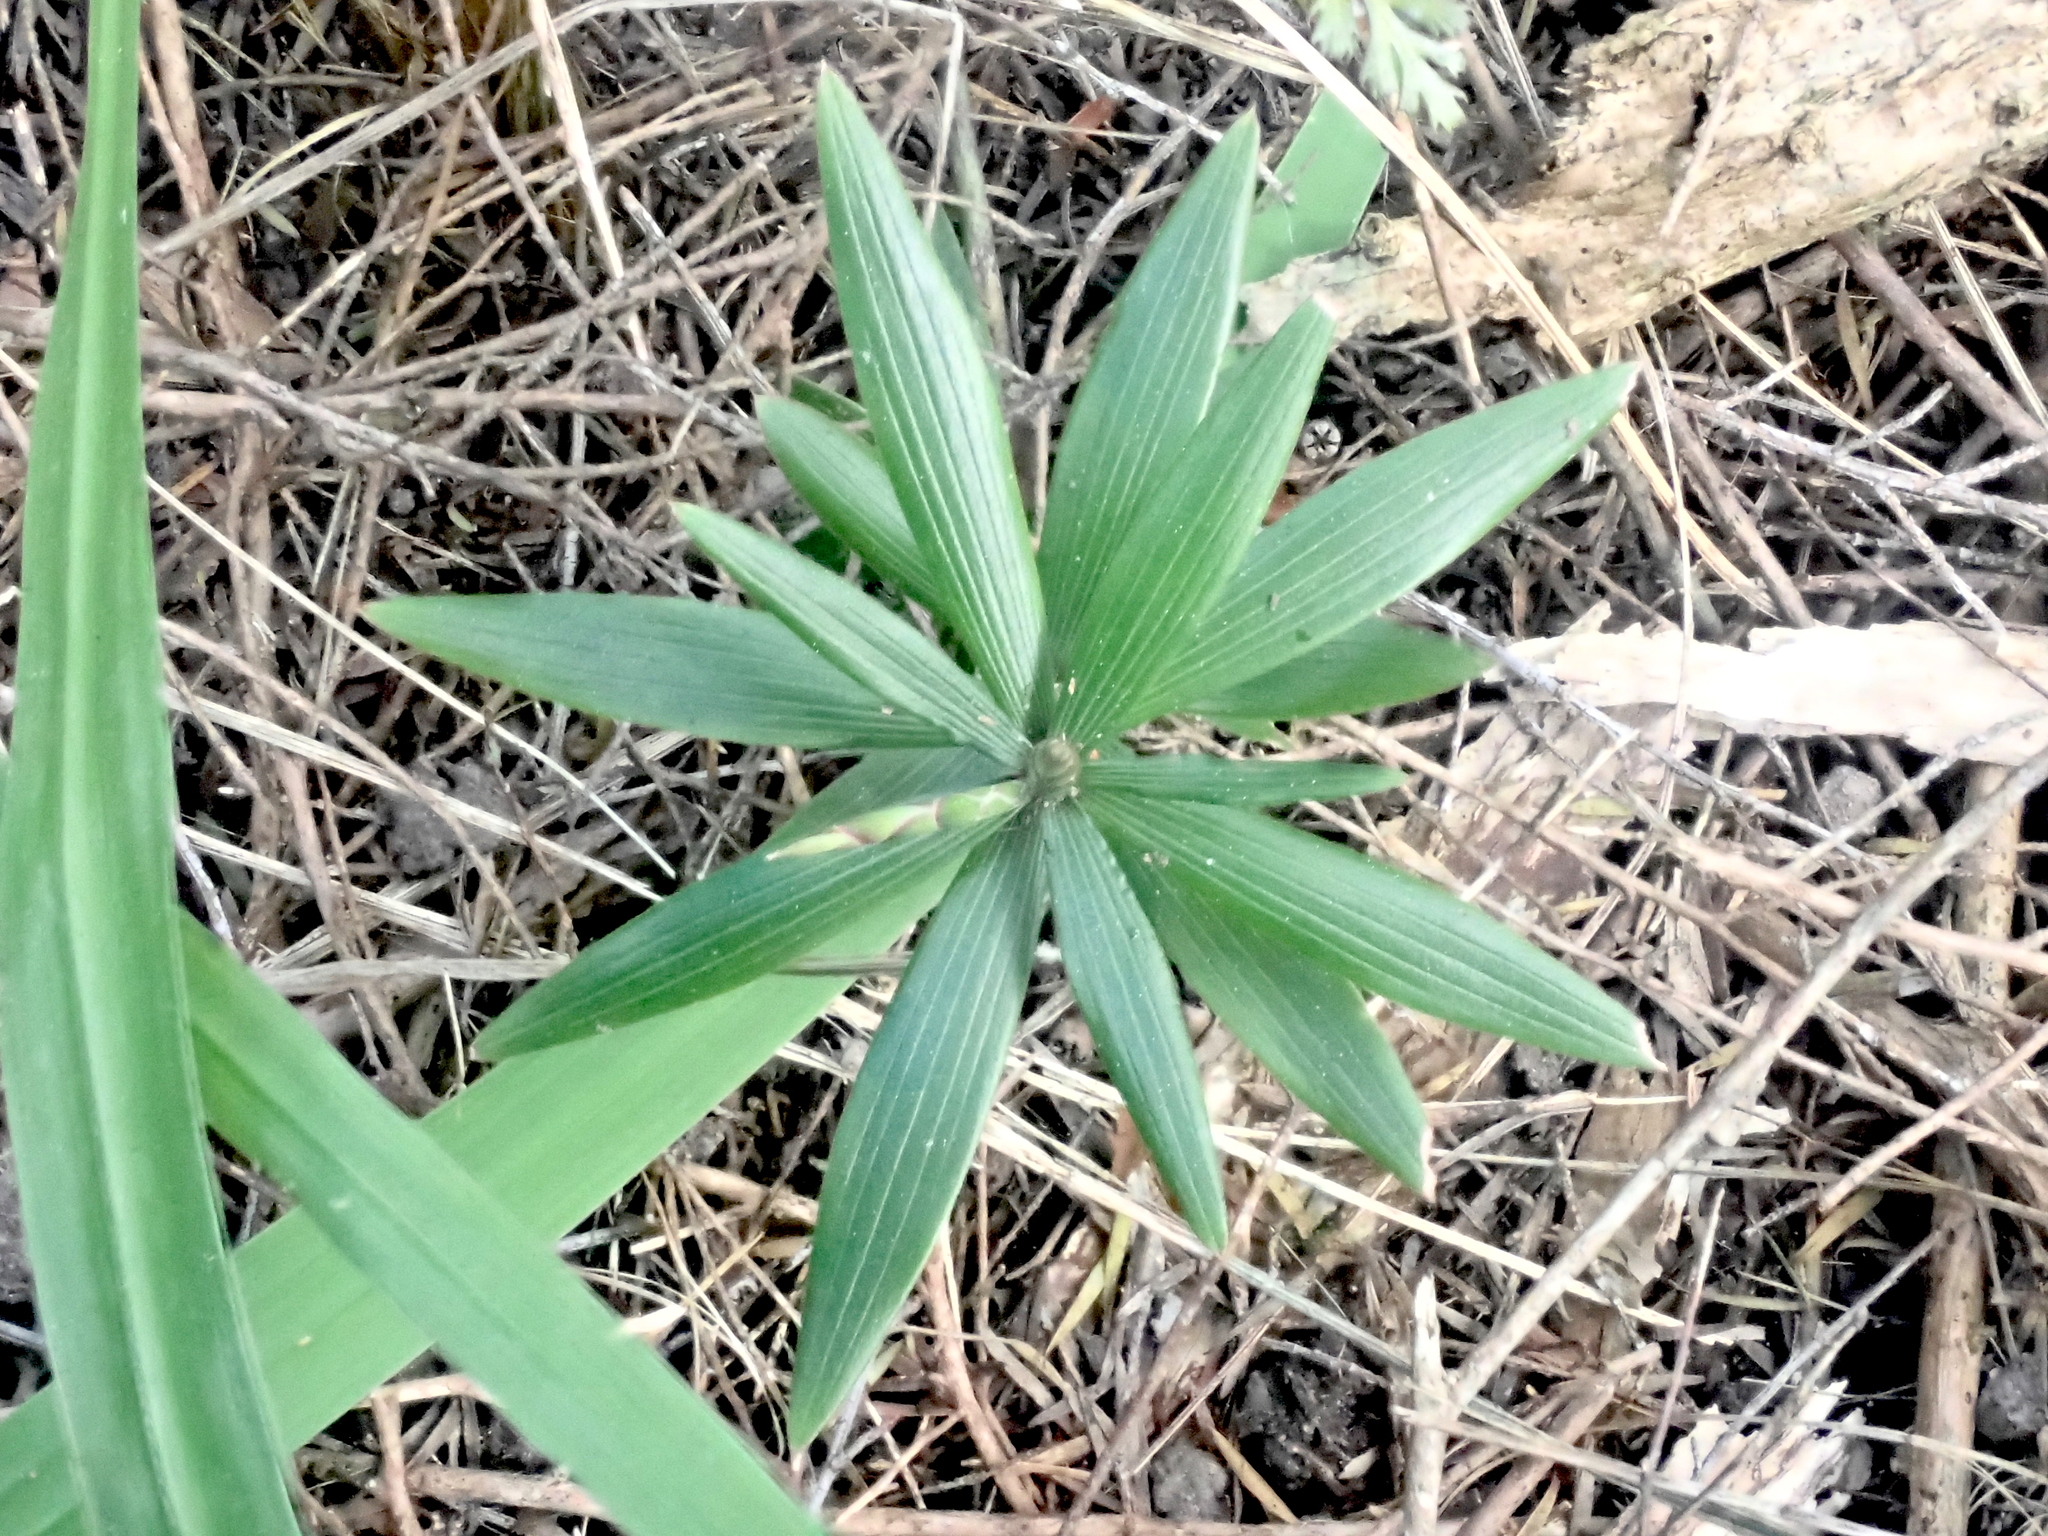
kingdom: Plantae
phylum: Tracheophyta
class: Magnoliopsida
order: Ericales
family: Ericaceae
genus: Leucopogon
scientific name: Leucopogon fasciculatus
